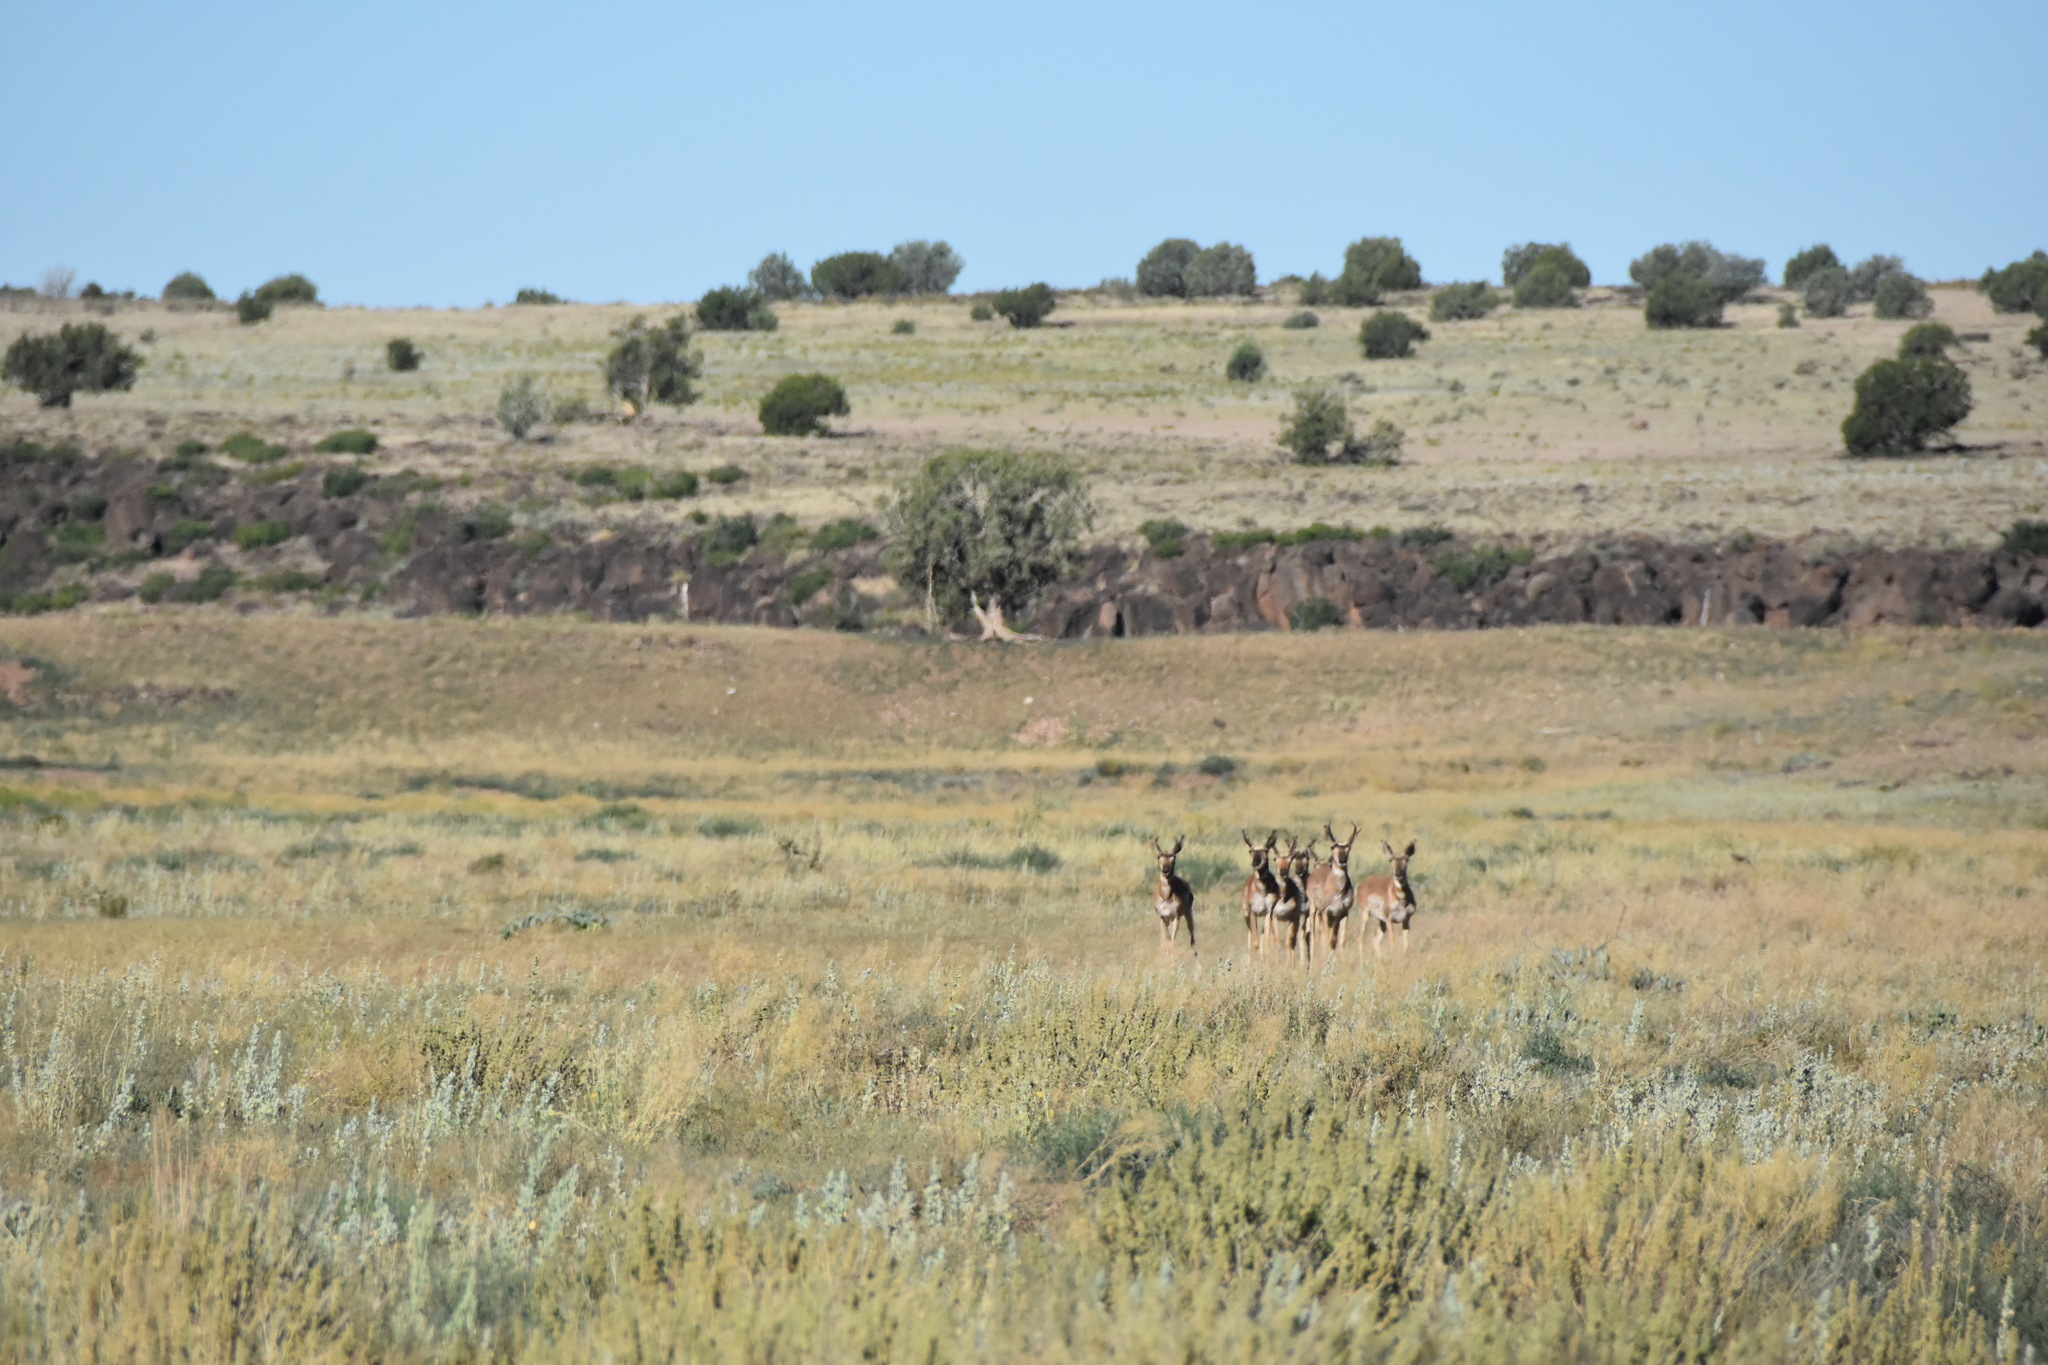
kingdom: Animalia
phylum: Chordata
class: Mammalia
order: Artiodactyla
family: Antilocapridae
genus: Antilocapra
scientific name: Antilocapra americana
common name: Pronghorn
